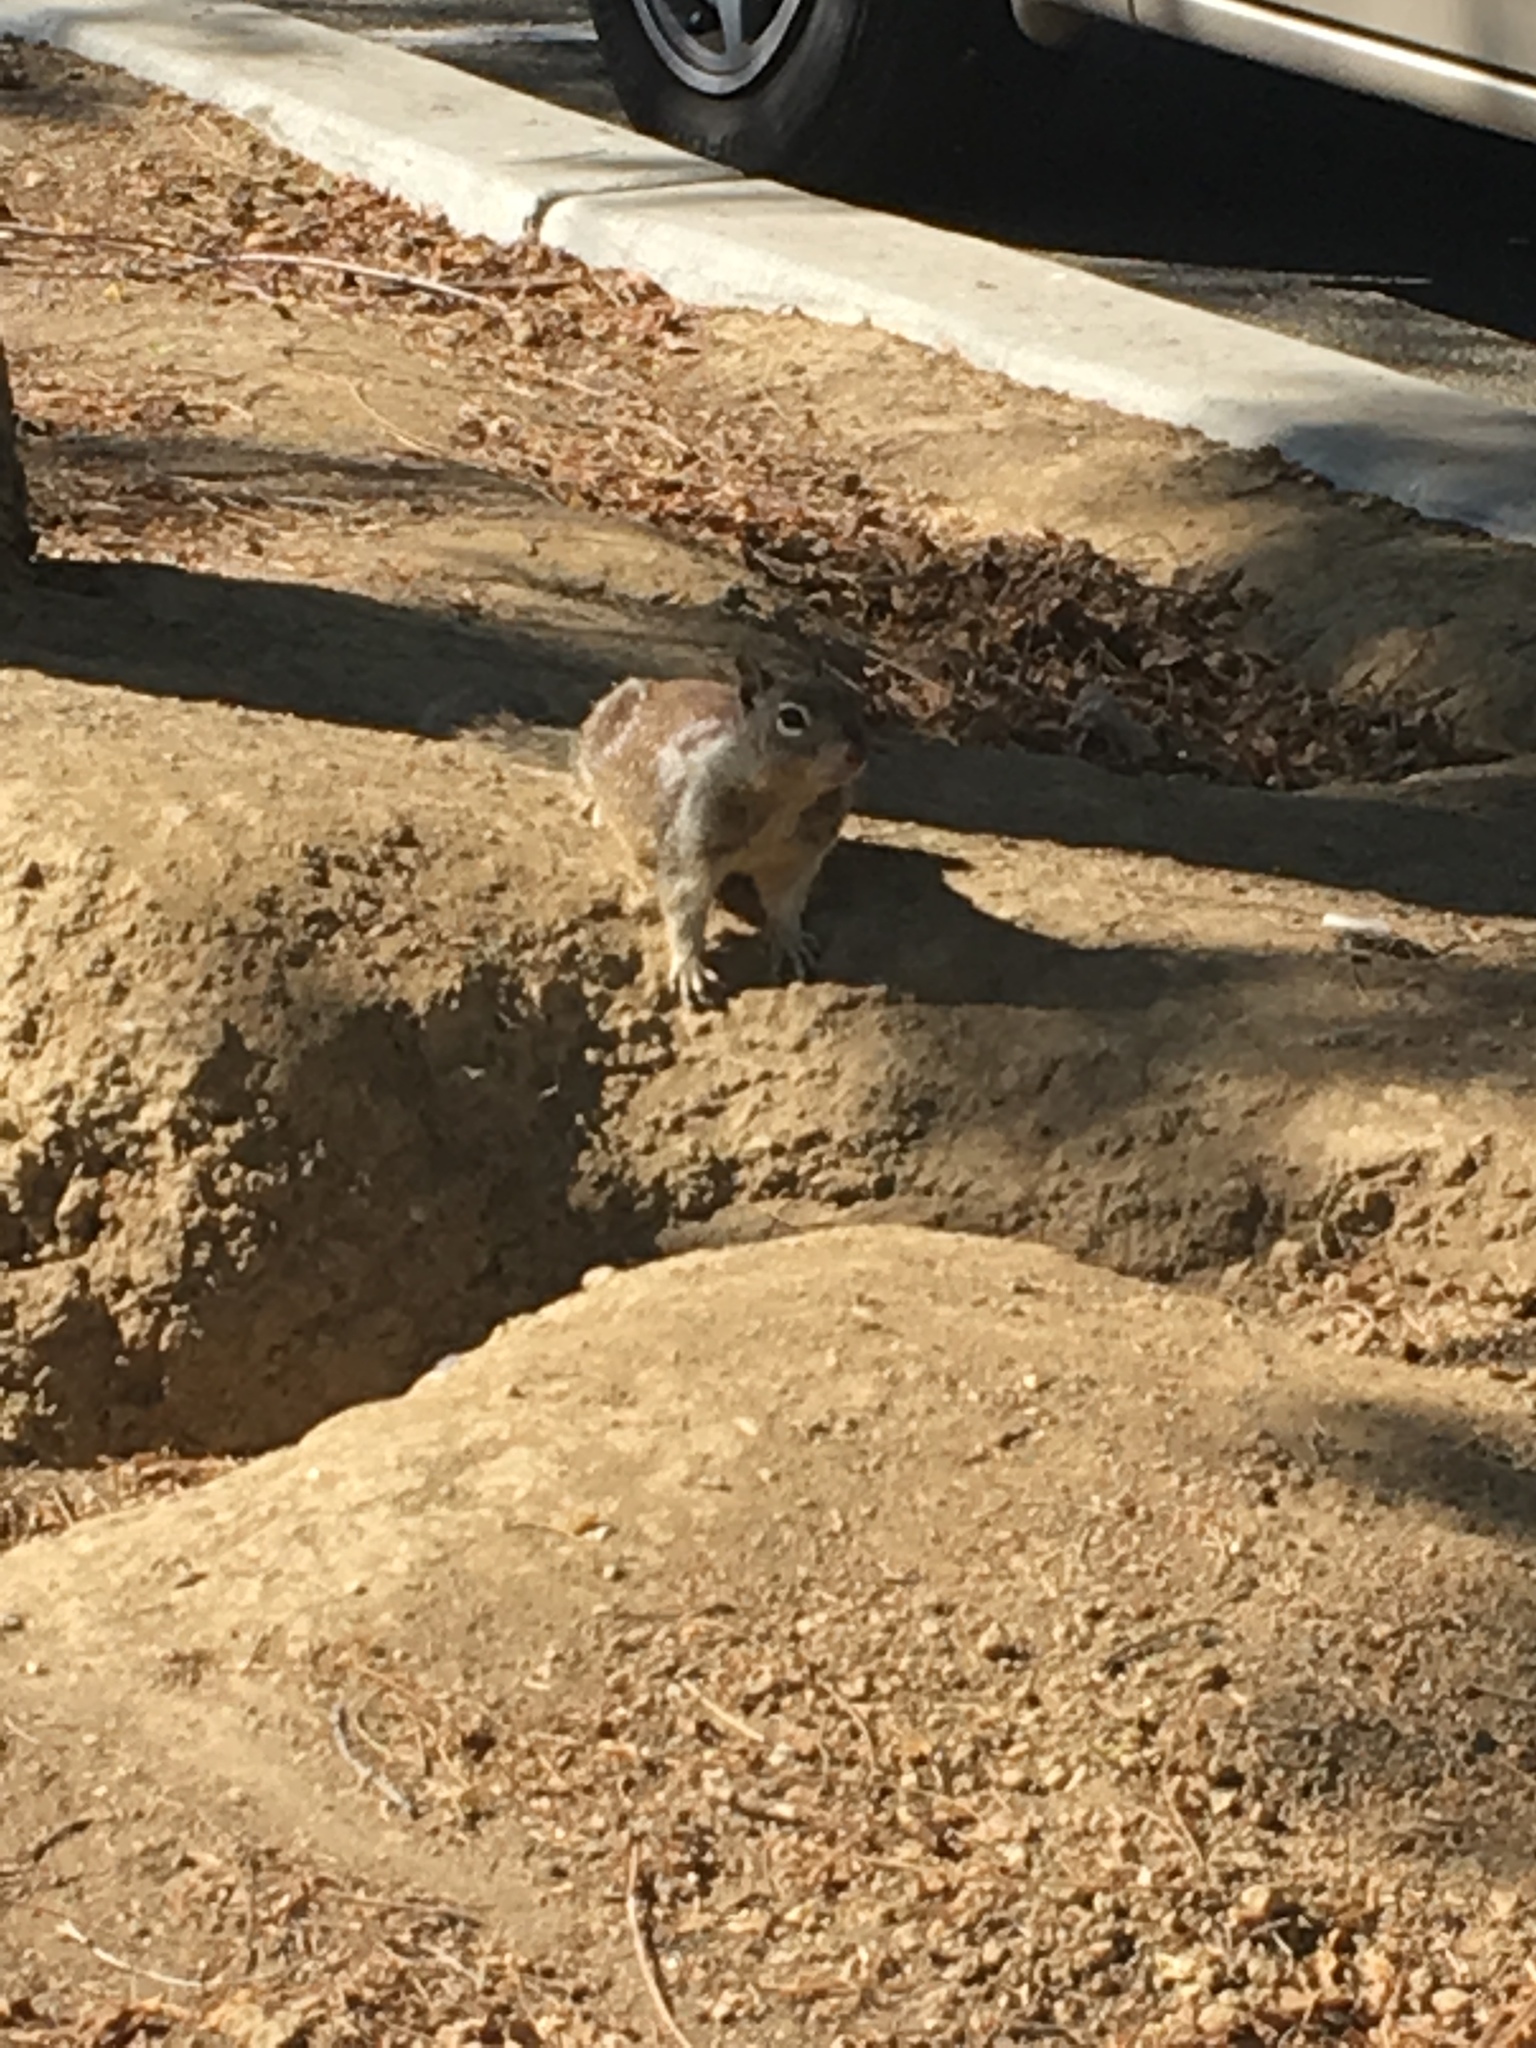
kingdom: Animalia
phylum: Chordata
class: Mammalia
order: Rodentia
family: Sciuridae
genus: Otospermophilus
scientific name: Otospermophilus beecheyi
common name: California ground squirrel
